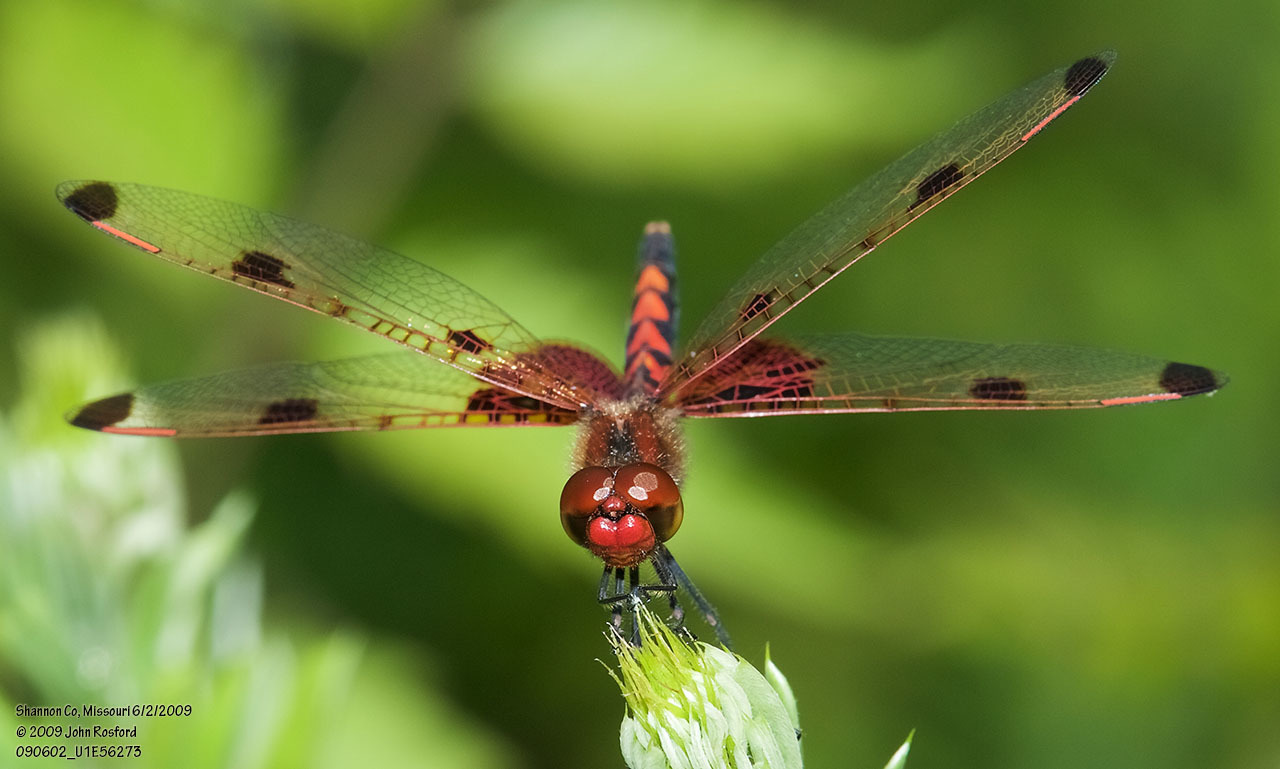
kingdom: Animalia
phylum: Arthropoda
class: Insecta
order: Odonata
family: Libellulidae
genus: Celithemis
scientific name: Celithemis elisa
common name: Calico pennant
